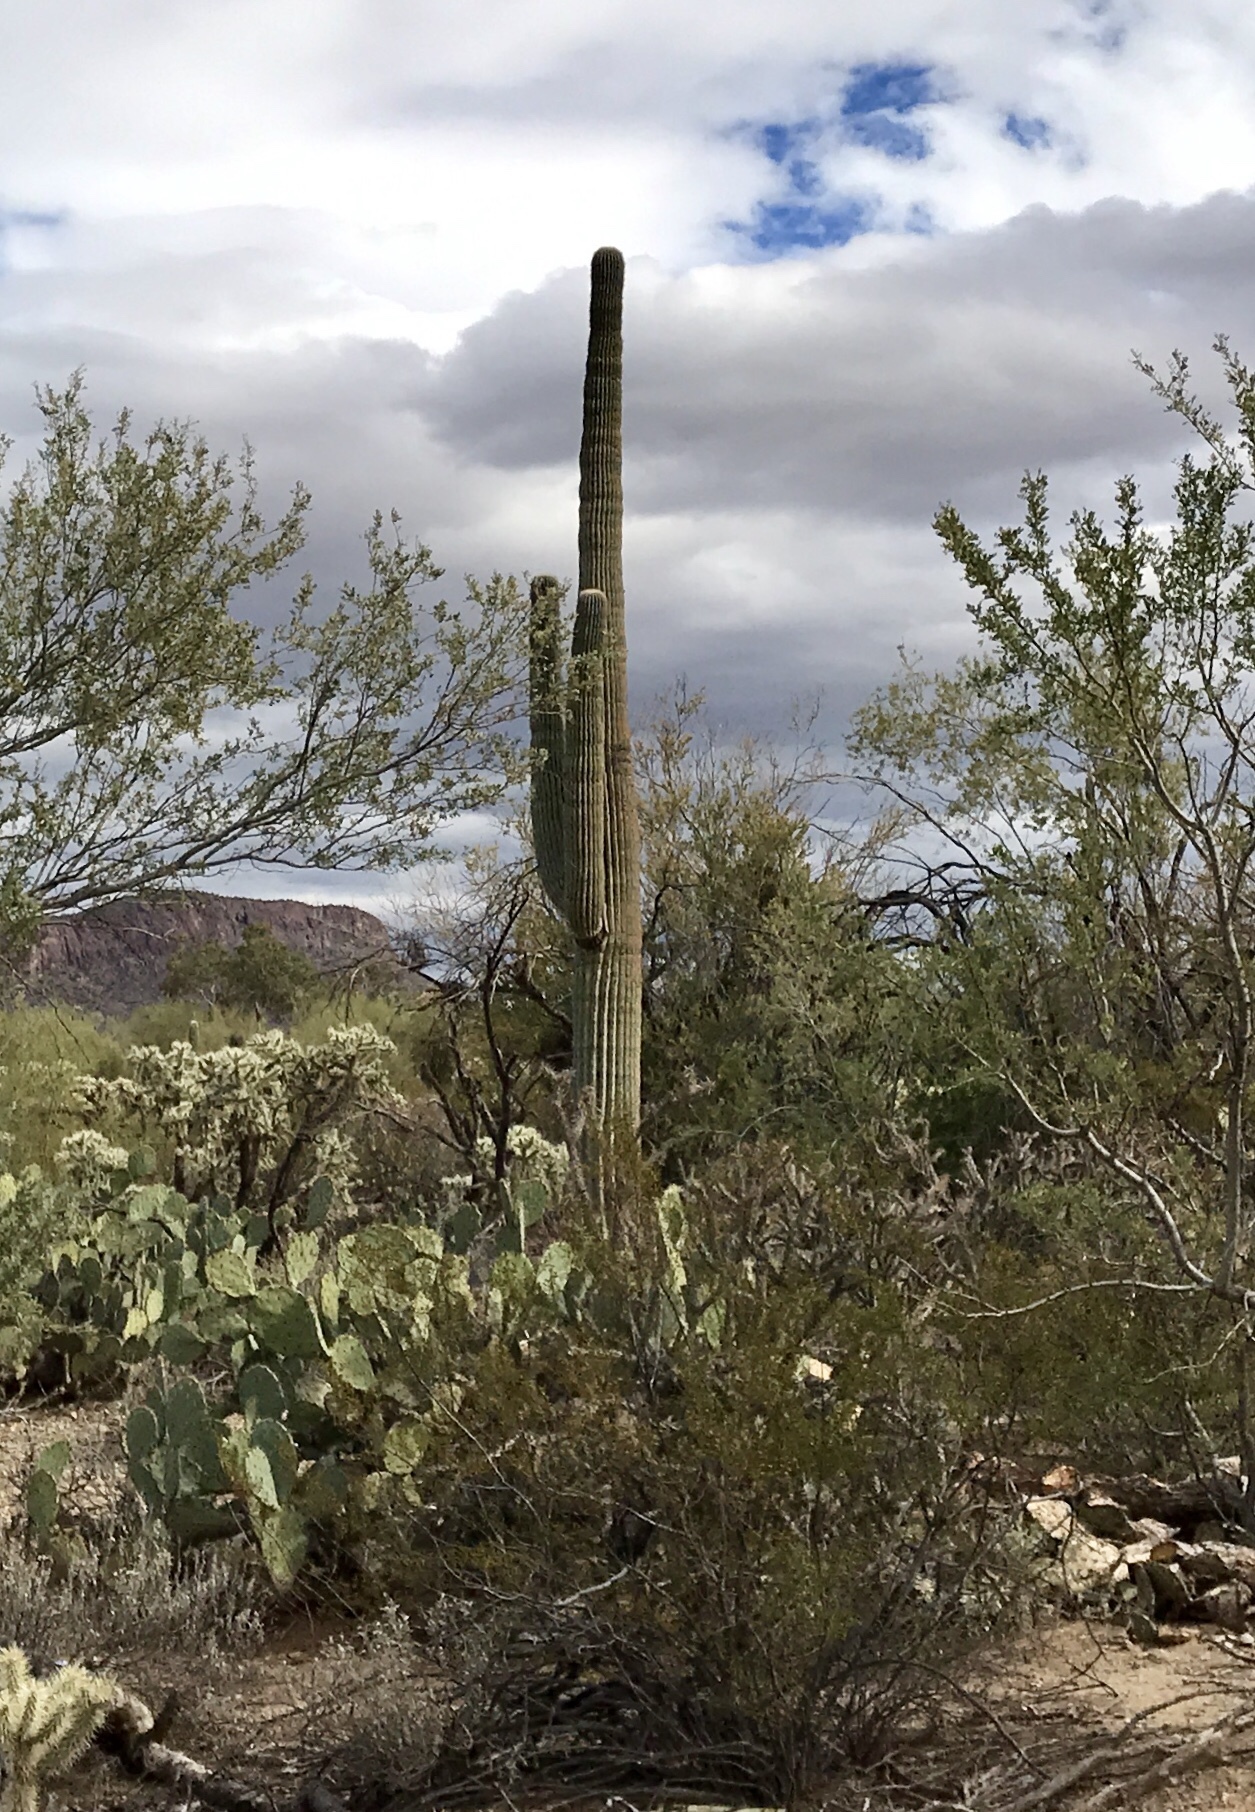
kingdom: Plantae
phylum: Tracheophyta
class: Magnoliopsida
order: Caryophyllales
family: Cactaceae
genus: Carnegiea
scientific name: Carnegiea gigantea
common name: Saguaro
